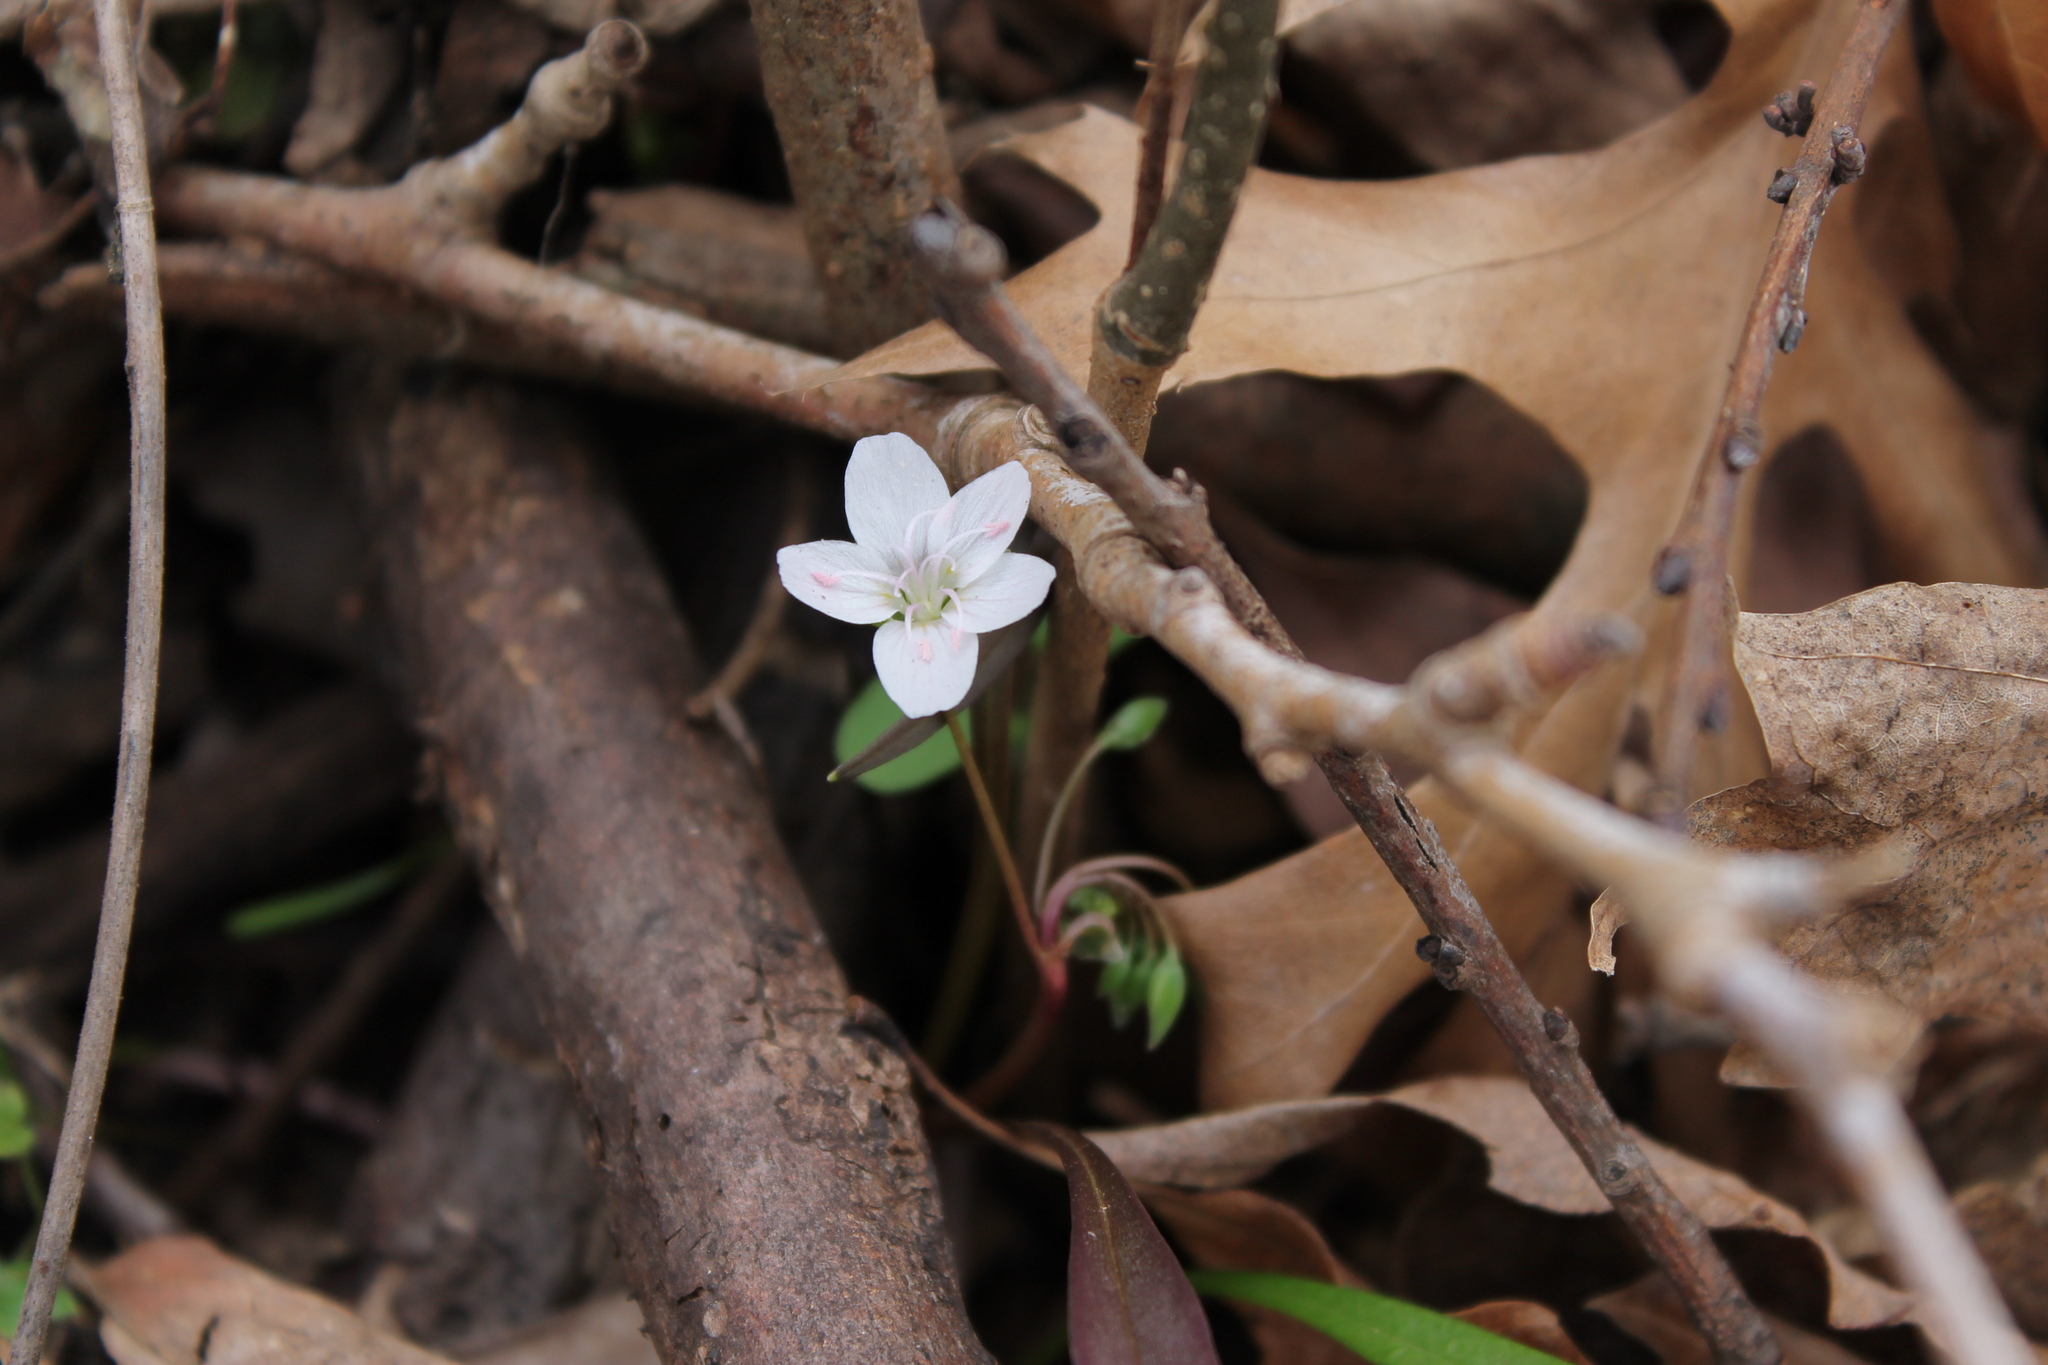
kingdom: Plantae
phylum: Tracheophyta
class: Magnoliopsida
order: Caryophyllales
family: Montiaceae
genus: Claytonia
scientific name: Claytonia virginica
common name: Virginia springbeauty
